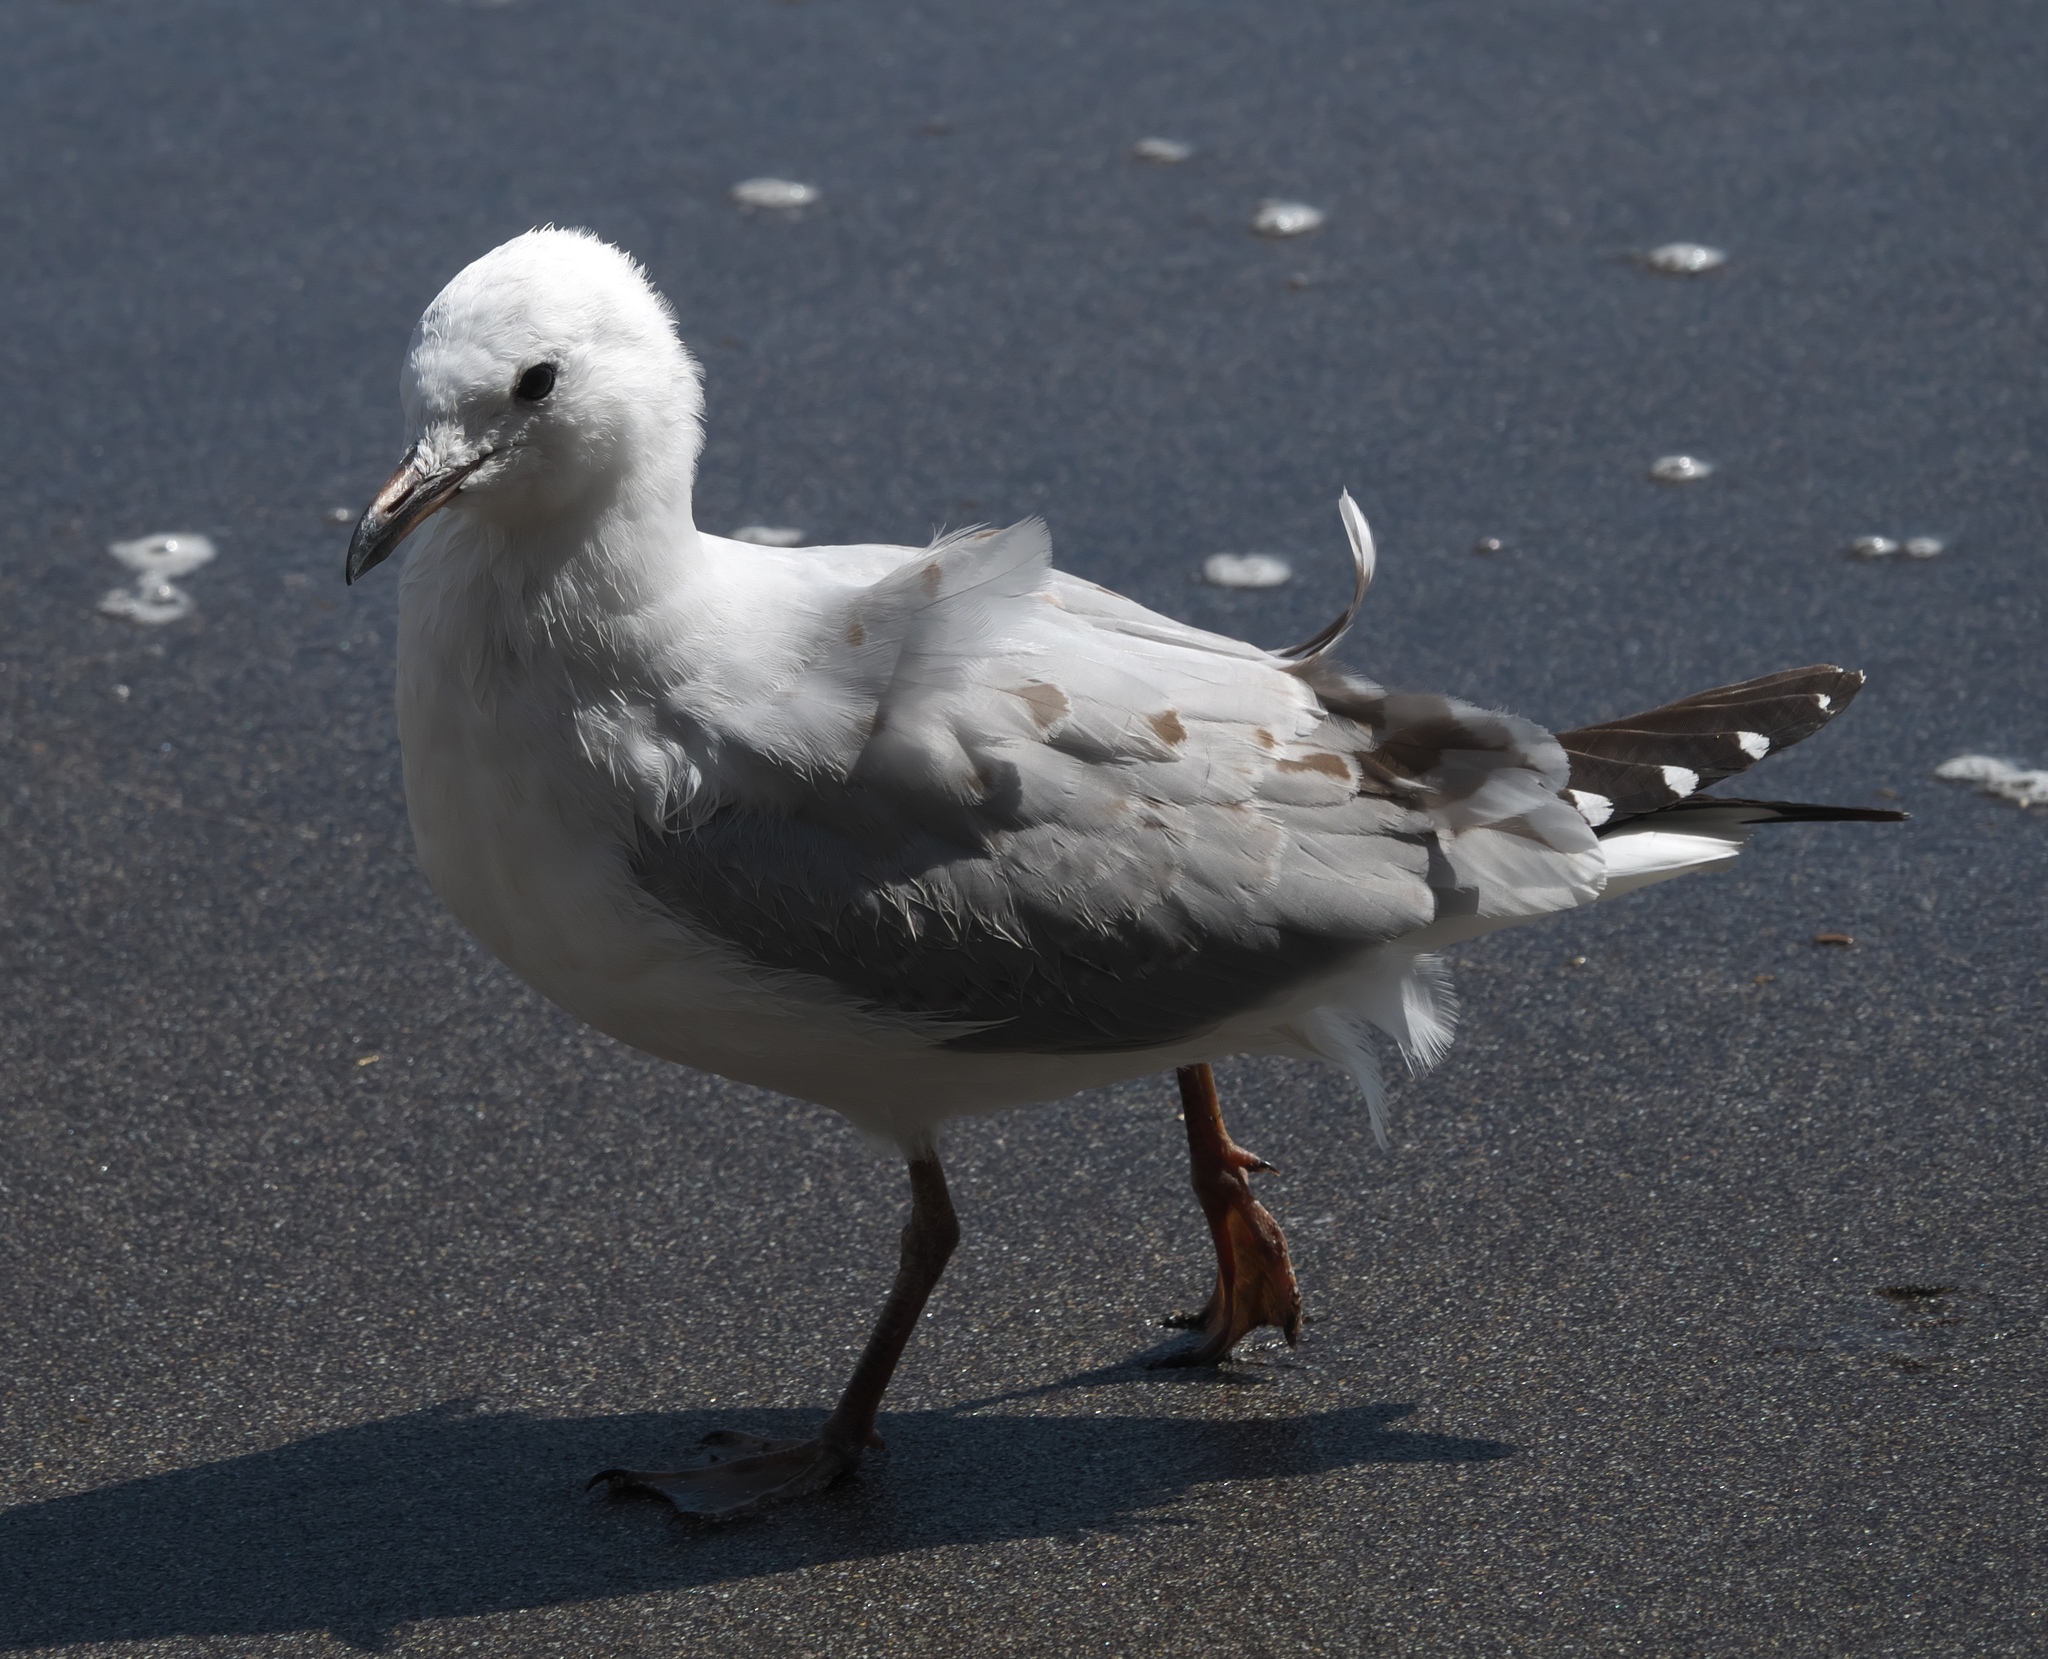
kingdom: Animalia
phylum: Chordata
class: Aves
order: Charadriiformes
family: Laridae
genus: Chroicocephalus
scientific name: Chroicocephalus novaehollandiae
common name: Silver gull
